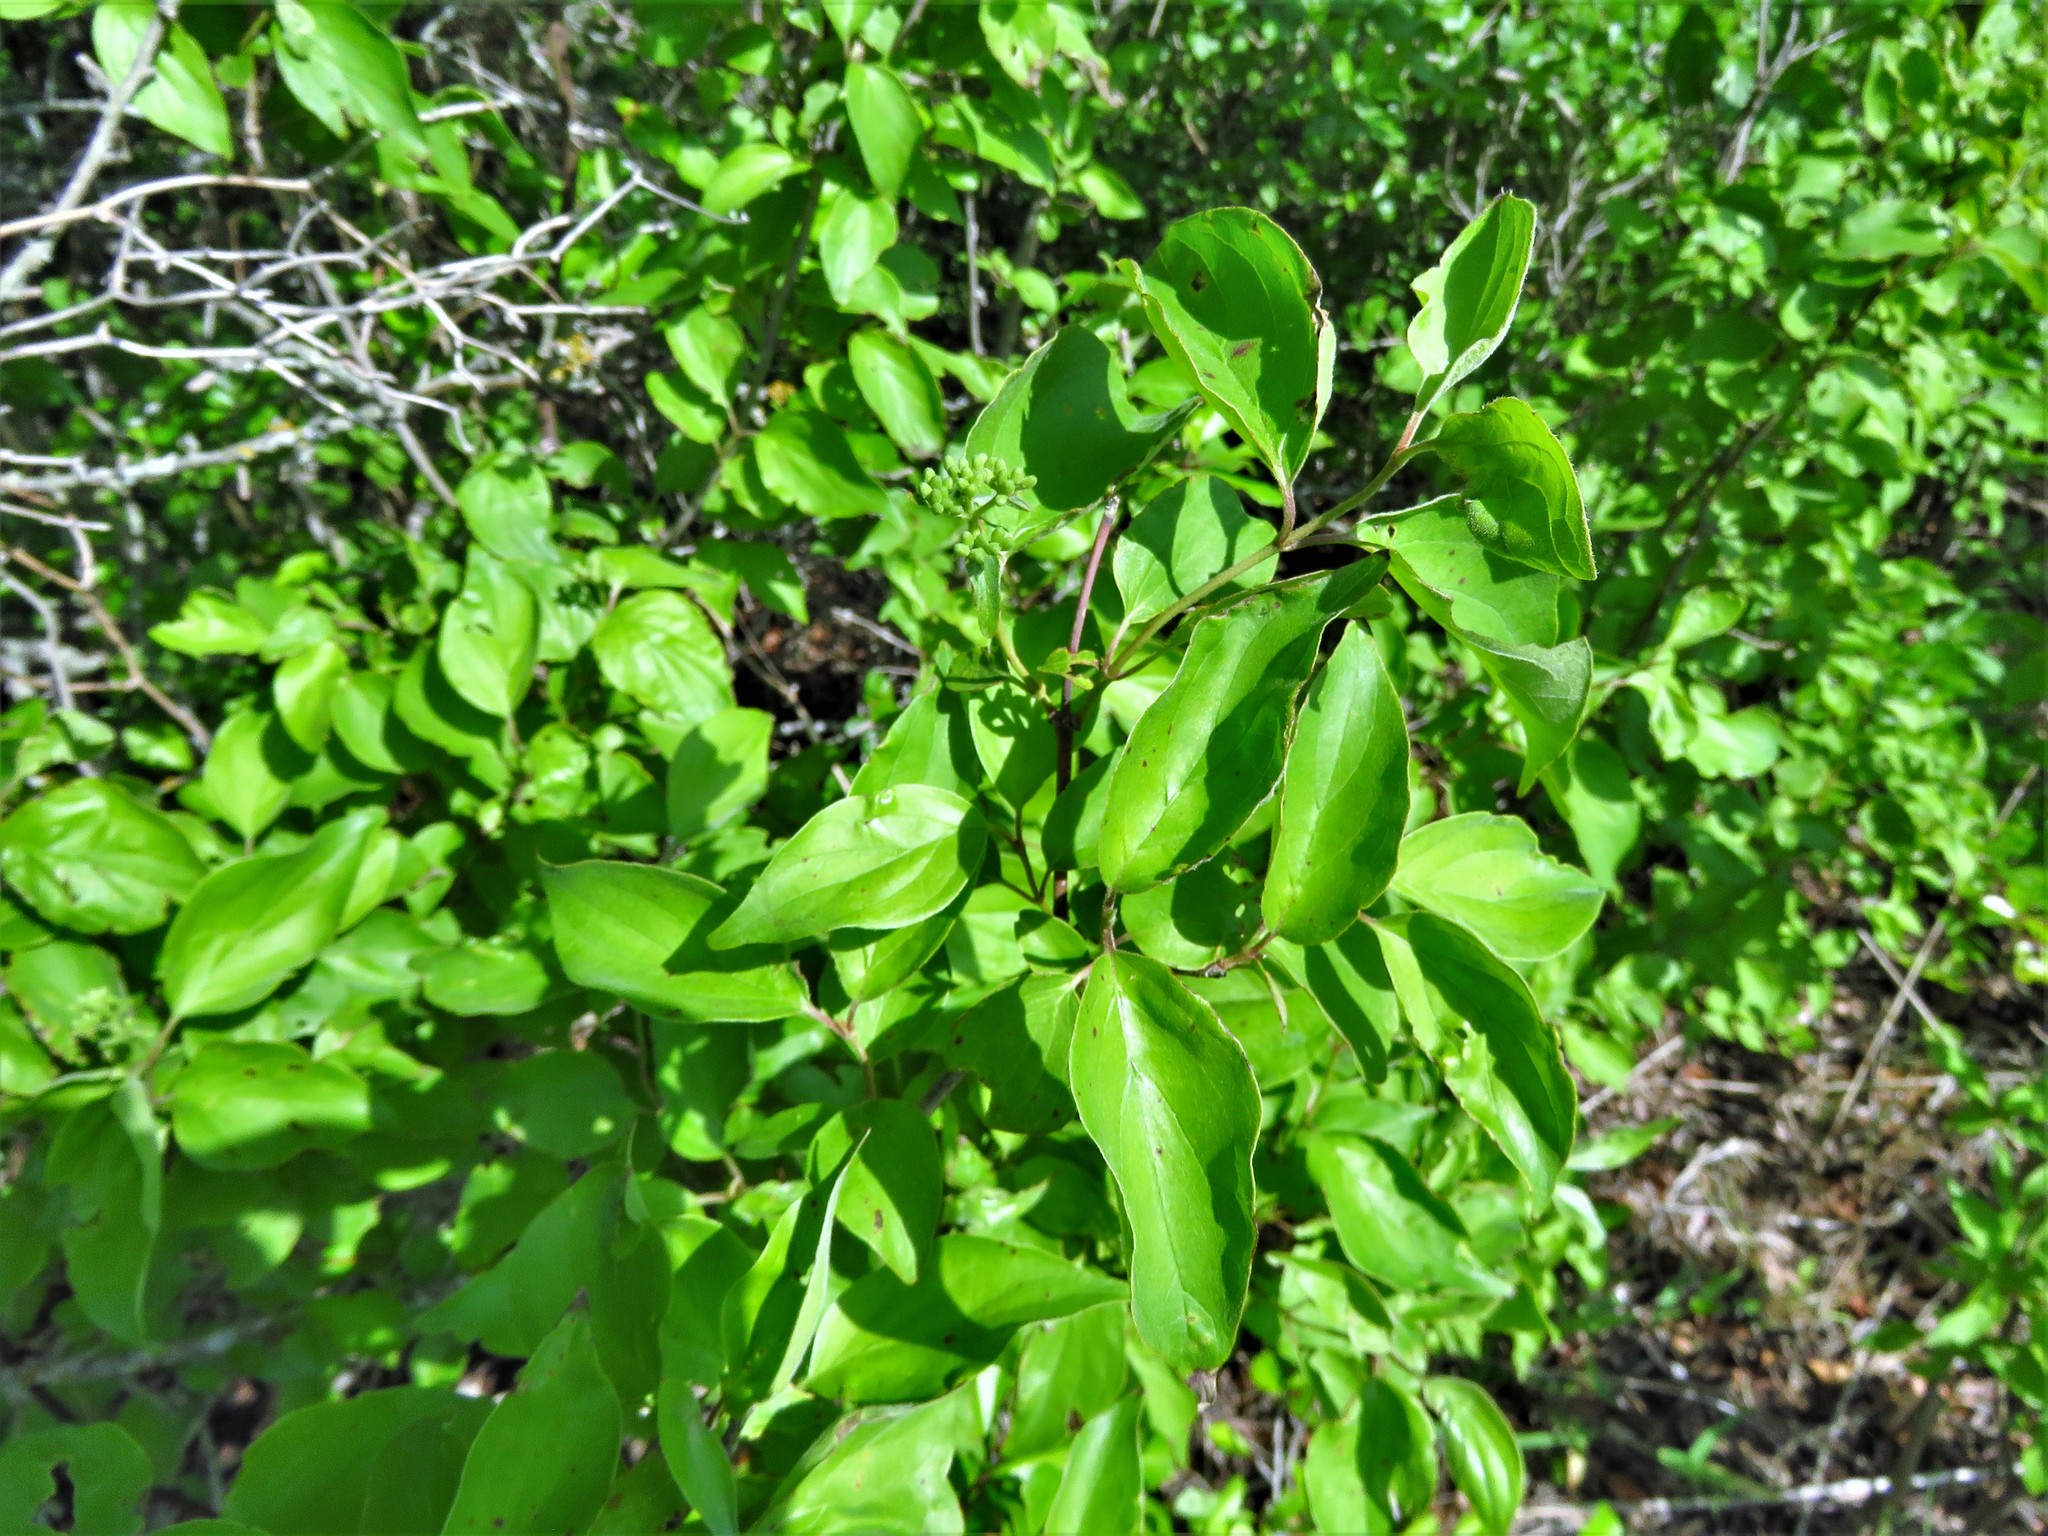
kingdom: Plantae
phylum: Tracheophyta
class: Magnoliopsida
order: Cornales
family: Cornaceae
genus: Cornus
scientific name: Cornus drummondii
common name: Rough-leaf dogwood
